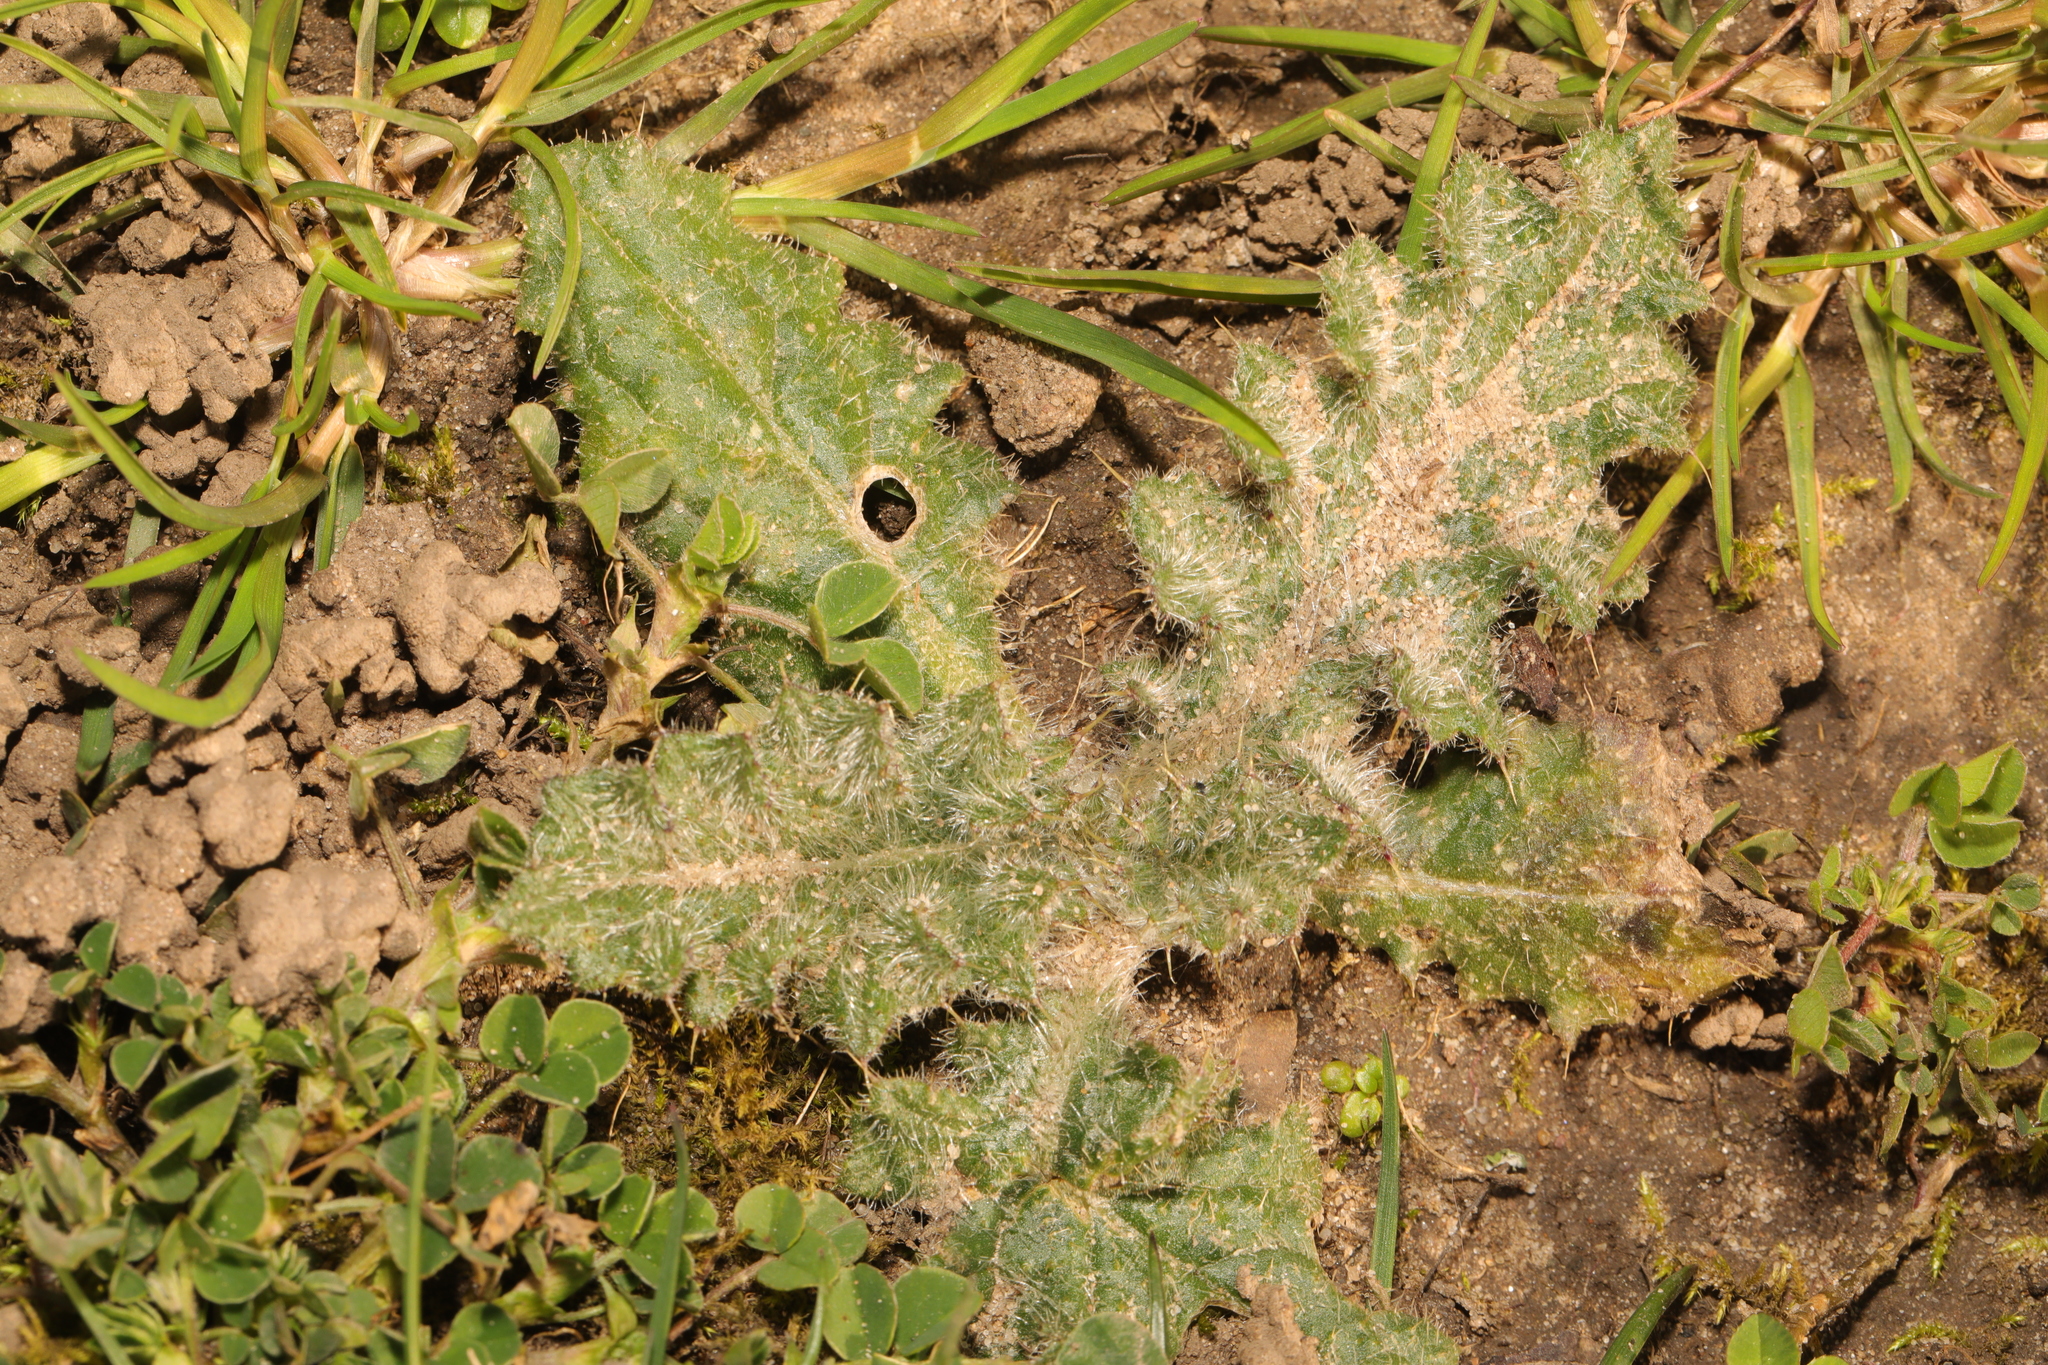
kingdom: Plantae
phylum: Tracheophyta
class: Magnoliopsida
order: Asterales
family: Asteraceae
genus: Cirsium
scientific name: Cirsium vulgare
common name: Bull thistle
